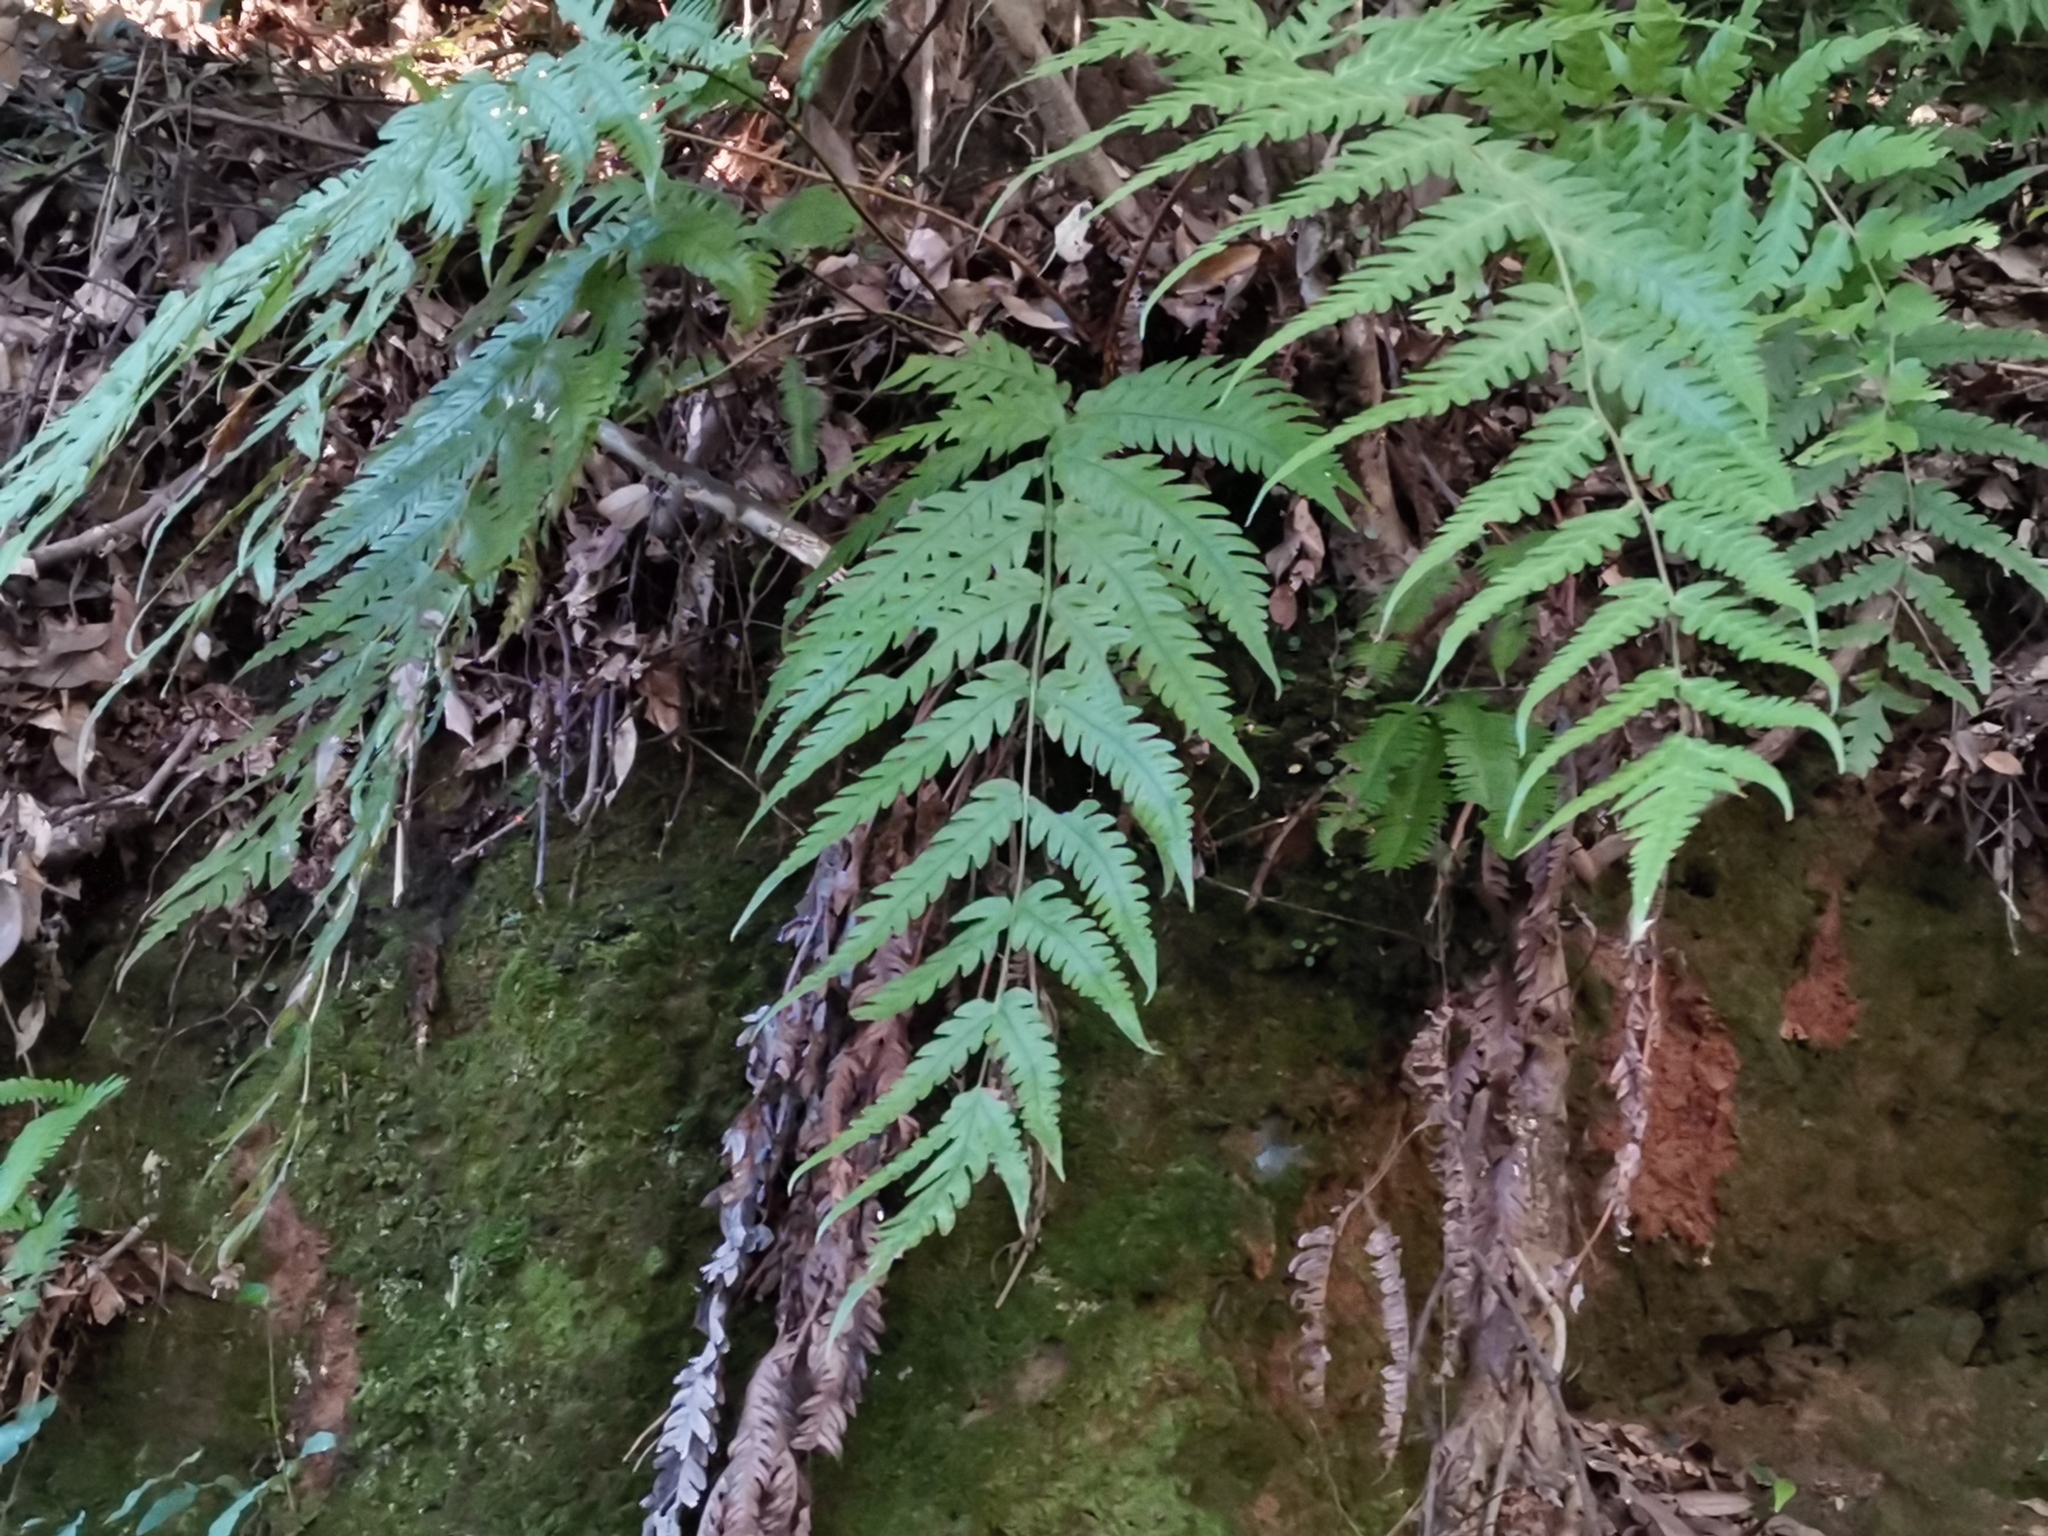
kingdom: Plantae
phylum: Tracheophyta
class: Polypodiopsida
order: Polypodiales
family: Blechnaceae
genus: Woodwardia
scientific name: Woodwardia orientalis
